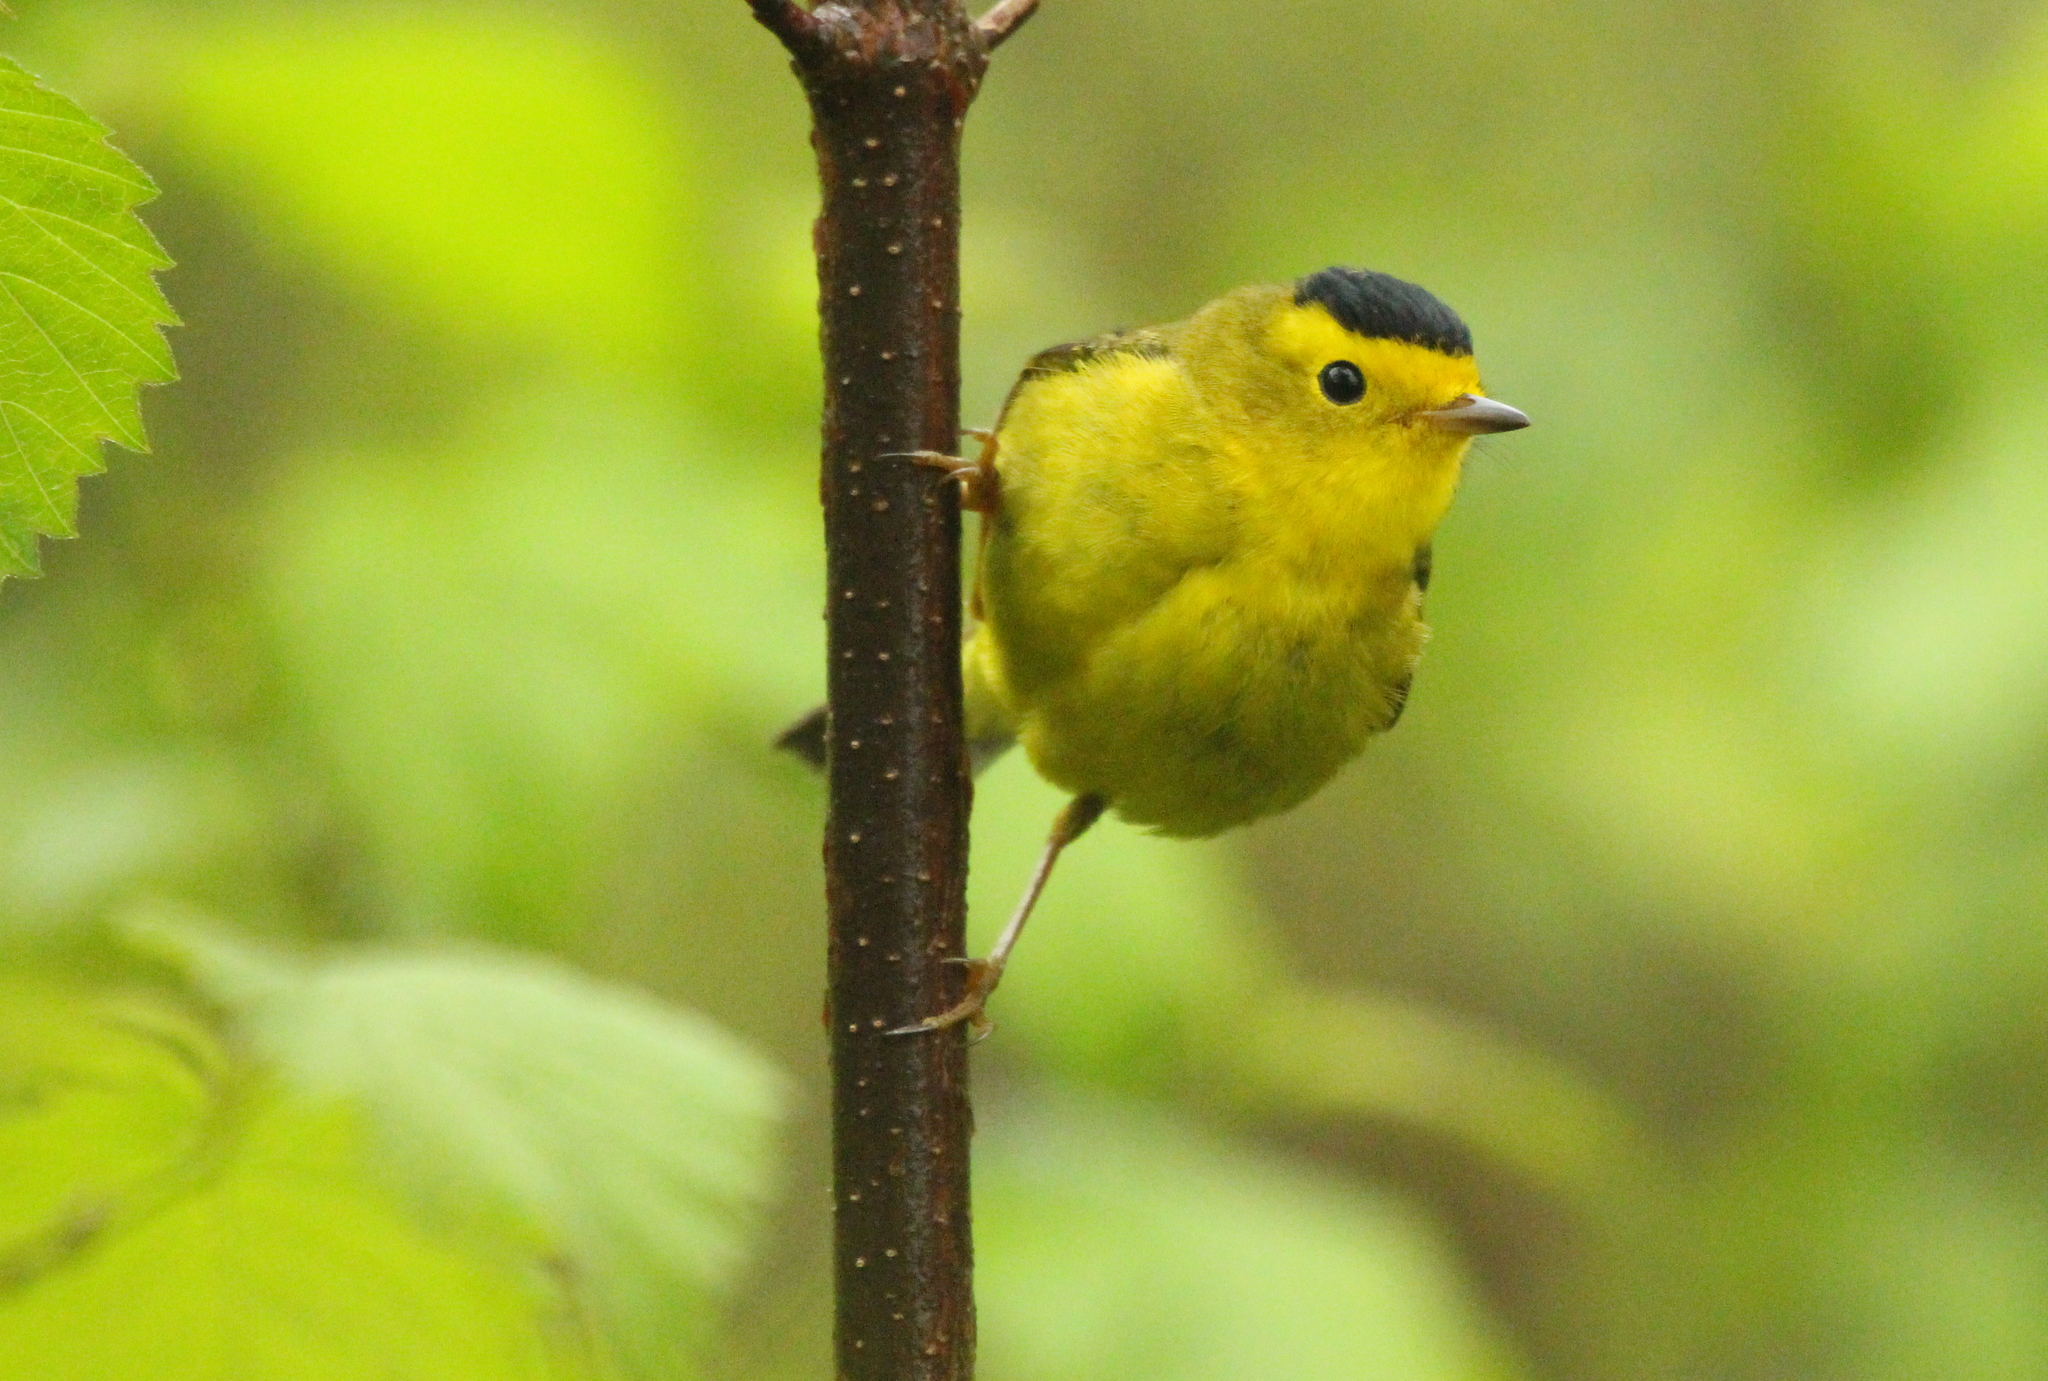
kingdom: Animalia
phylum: Chordata
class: Aves
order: Passeriformes
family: Parulidae
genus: Cardellina
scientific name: Cardellina pusilla
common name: Wilson's warbler
